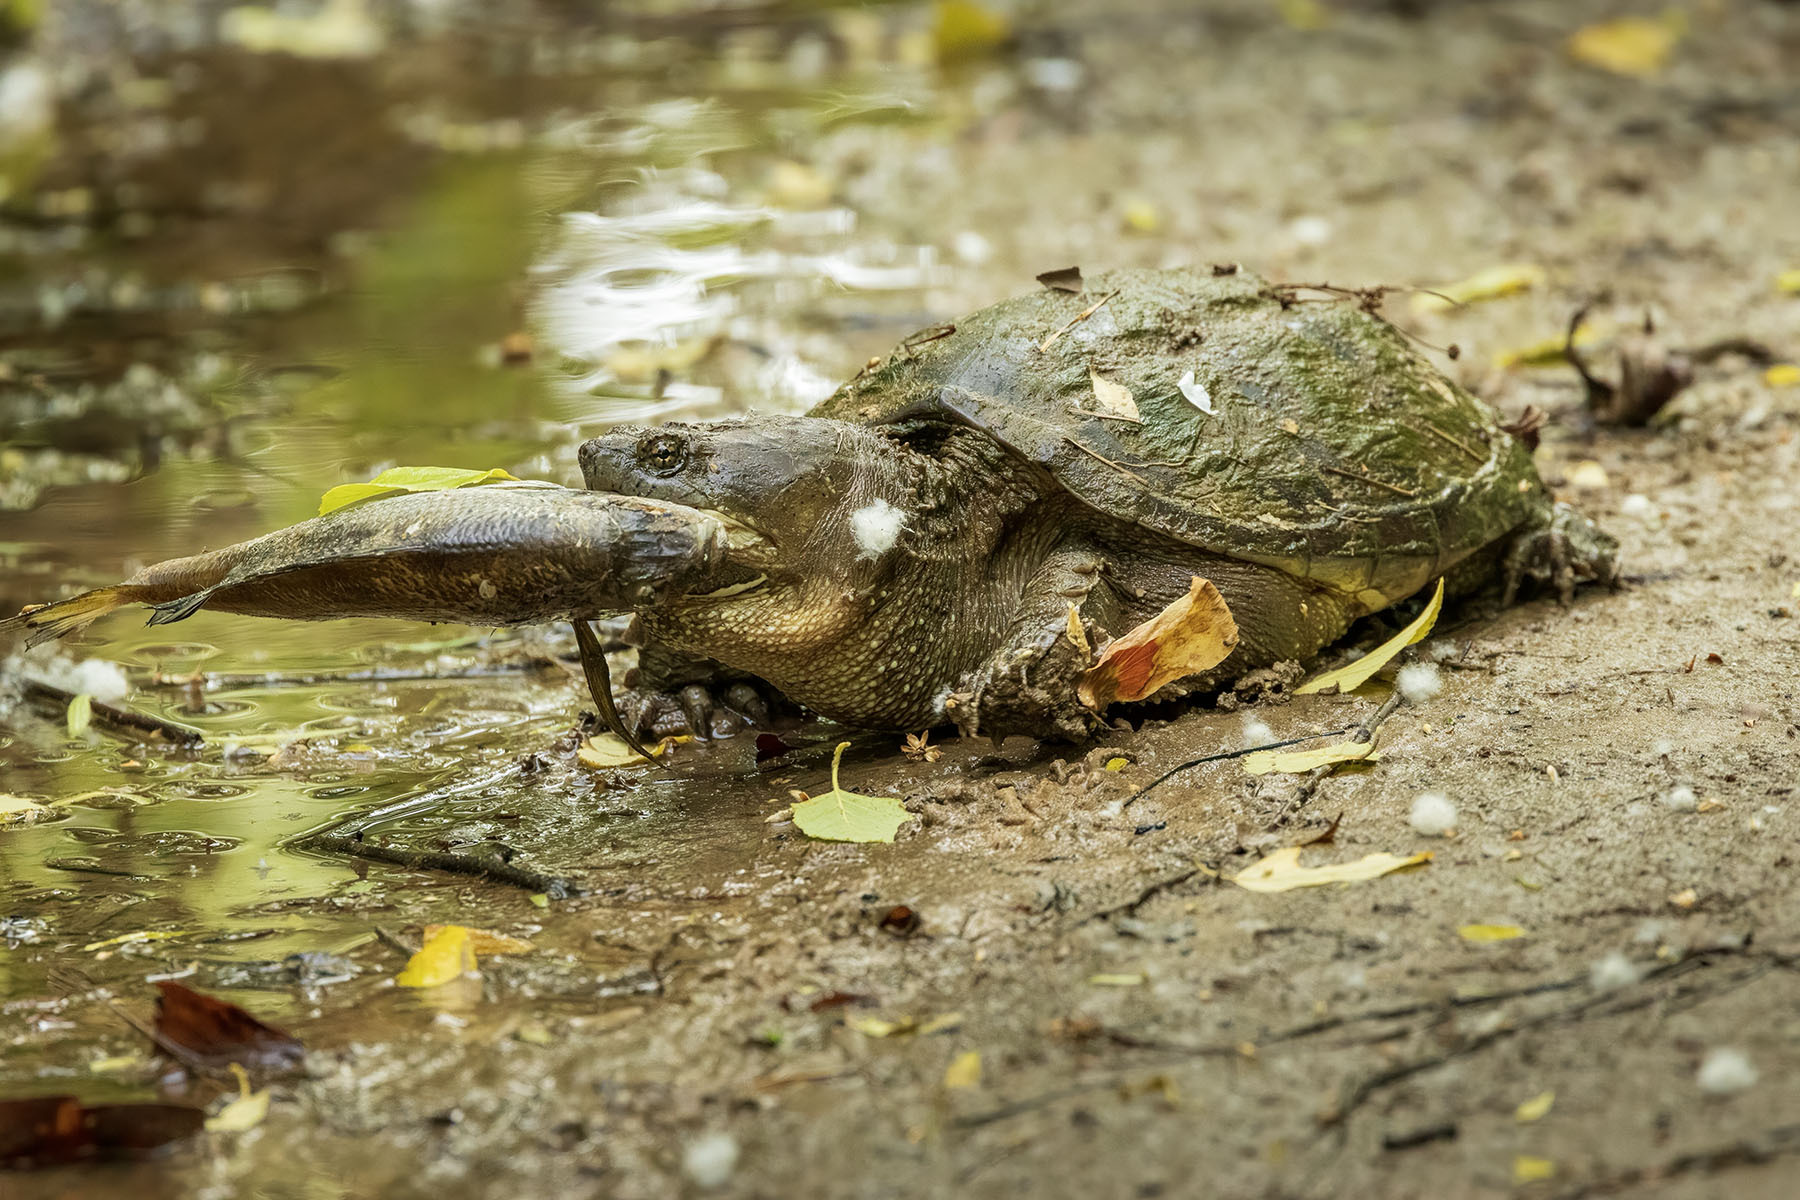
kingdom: Animalia
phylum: Chordata
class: Testudines
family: Chelydridae
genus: Chelydra
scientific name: Chelydra serpentina
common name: Common snapping turtle
